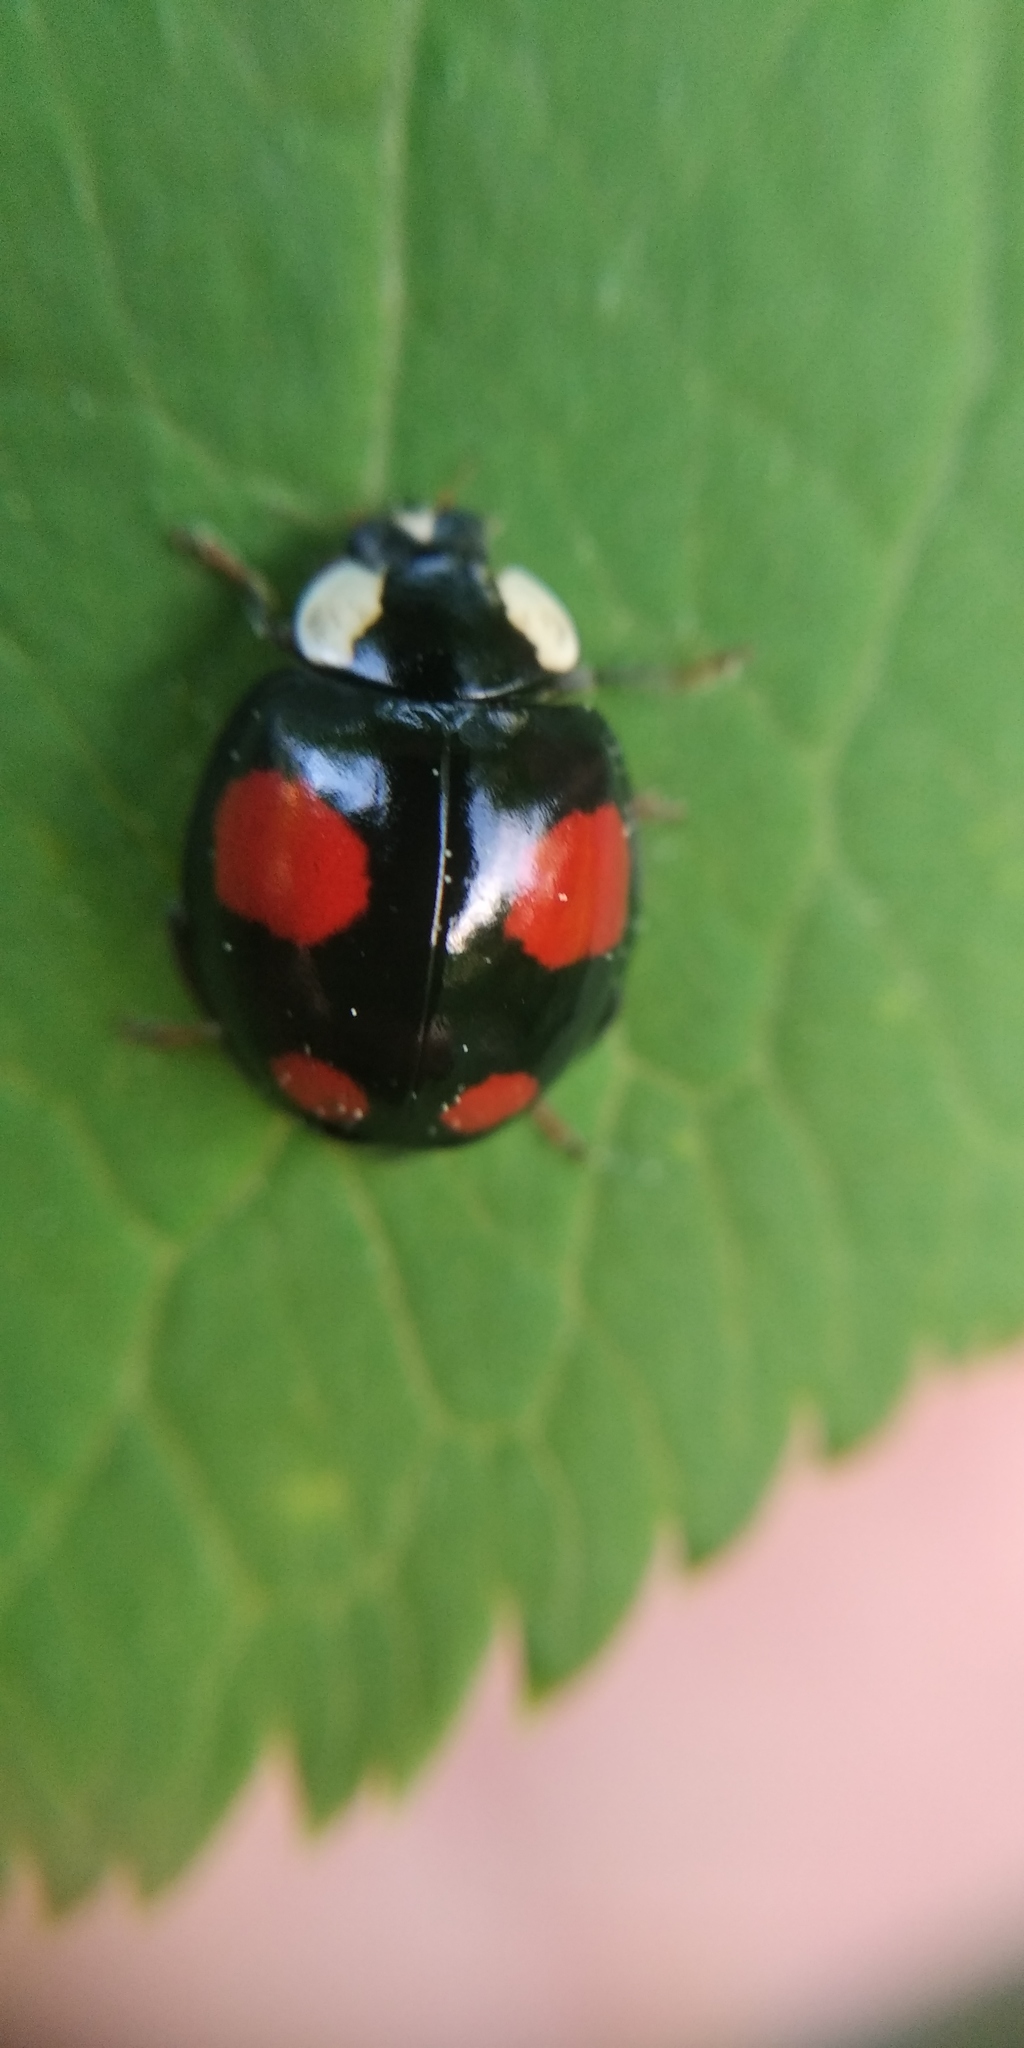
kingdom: Animalia
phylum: Arthropoda
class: Insecta
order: Coleoptera
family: Coccinellidae
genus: Harmonia
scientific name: Harmonia axyridis
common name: Harlequin ladybird
